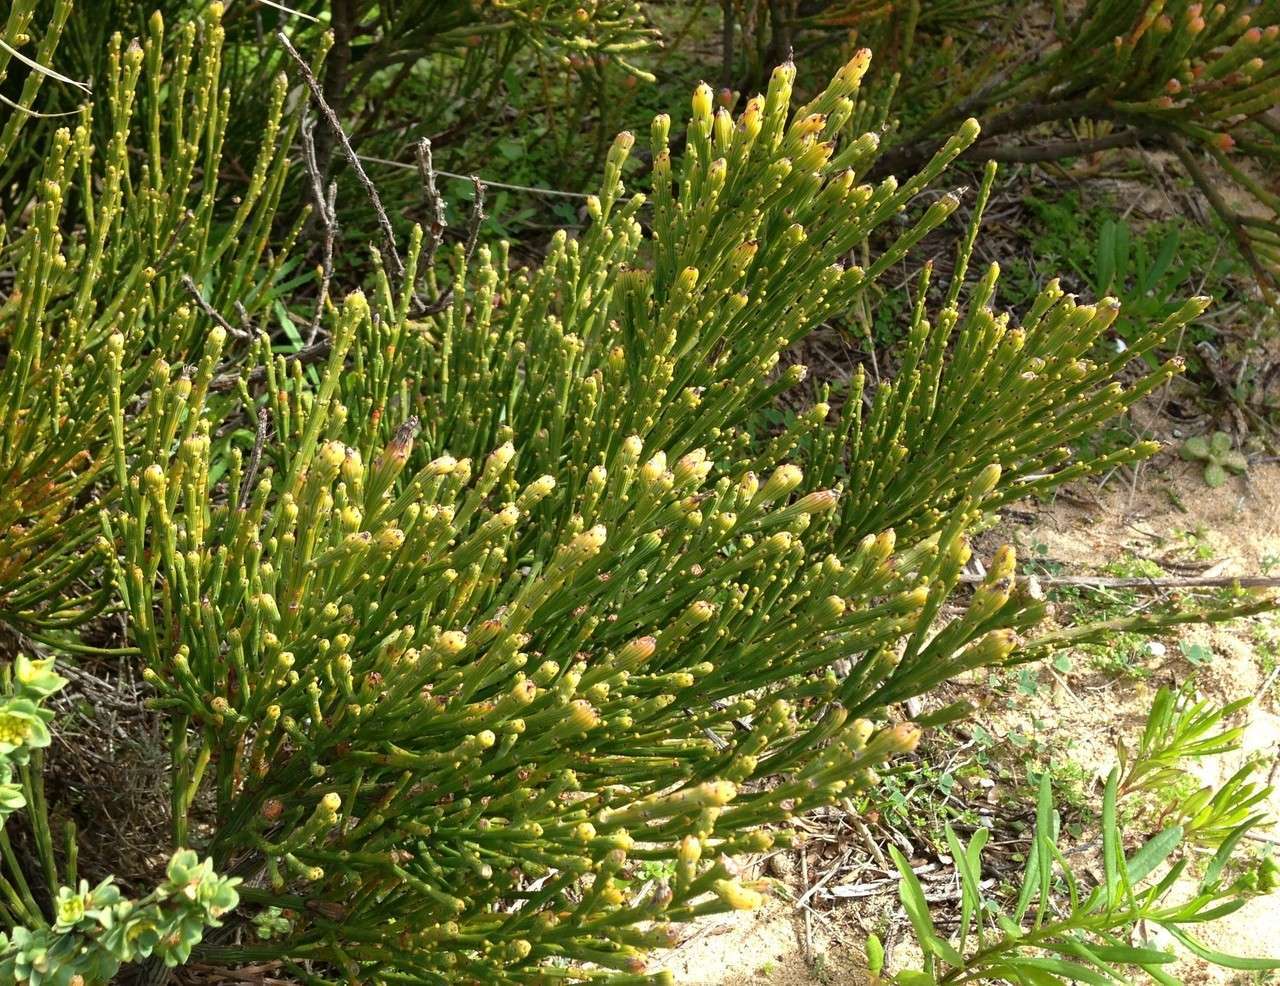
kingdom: Plantae
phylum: Tracheophyta
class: Magnoliopsida
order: Santalales
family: Santalaceae
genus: Exocarpos
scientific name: Exocarpos syrticola
